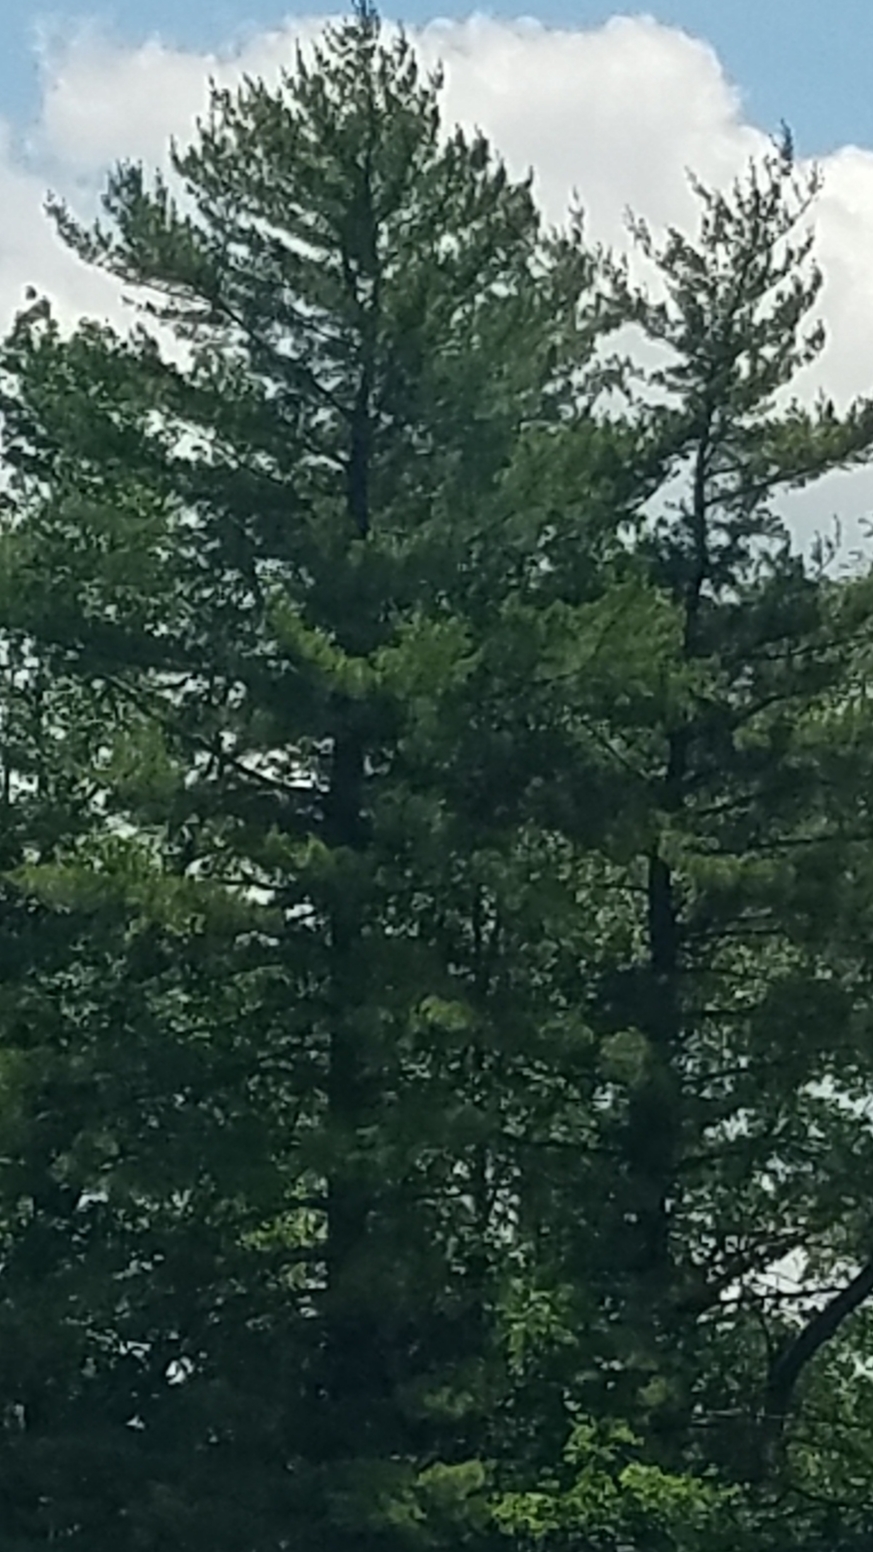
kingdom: Plantae
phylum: Tracheophyta
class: Pinopsida
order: Pinales
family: Pinaceae
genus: Pinus
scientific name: Pinus strobus
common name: Weymouth pine
